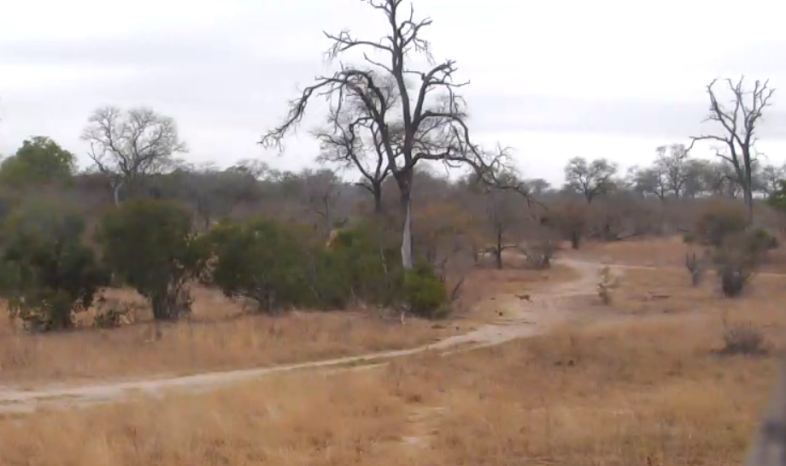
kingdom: Animalia
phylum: Chordata
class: Mammalia
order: Artiodactyla
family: Bovidae
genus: Sylvicapra
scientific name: Sylvicapra grimmia
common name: Bush duiker
